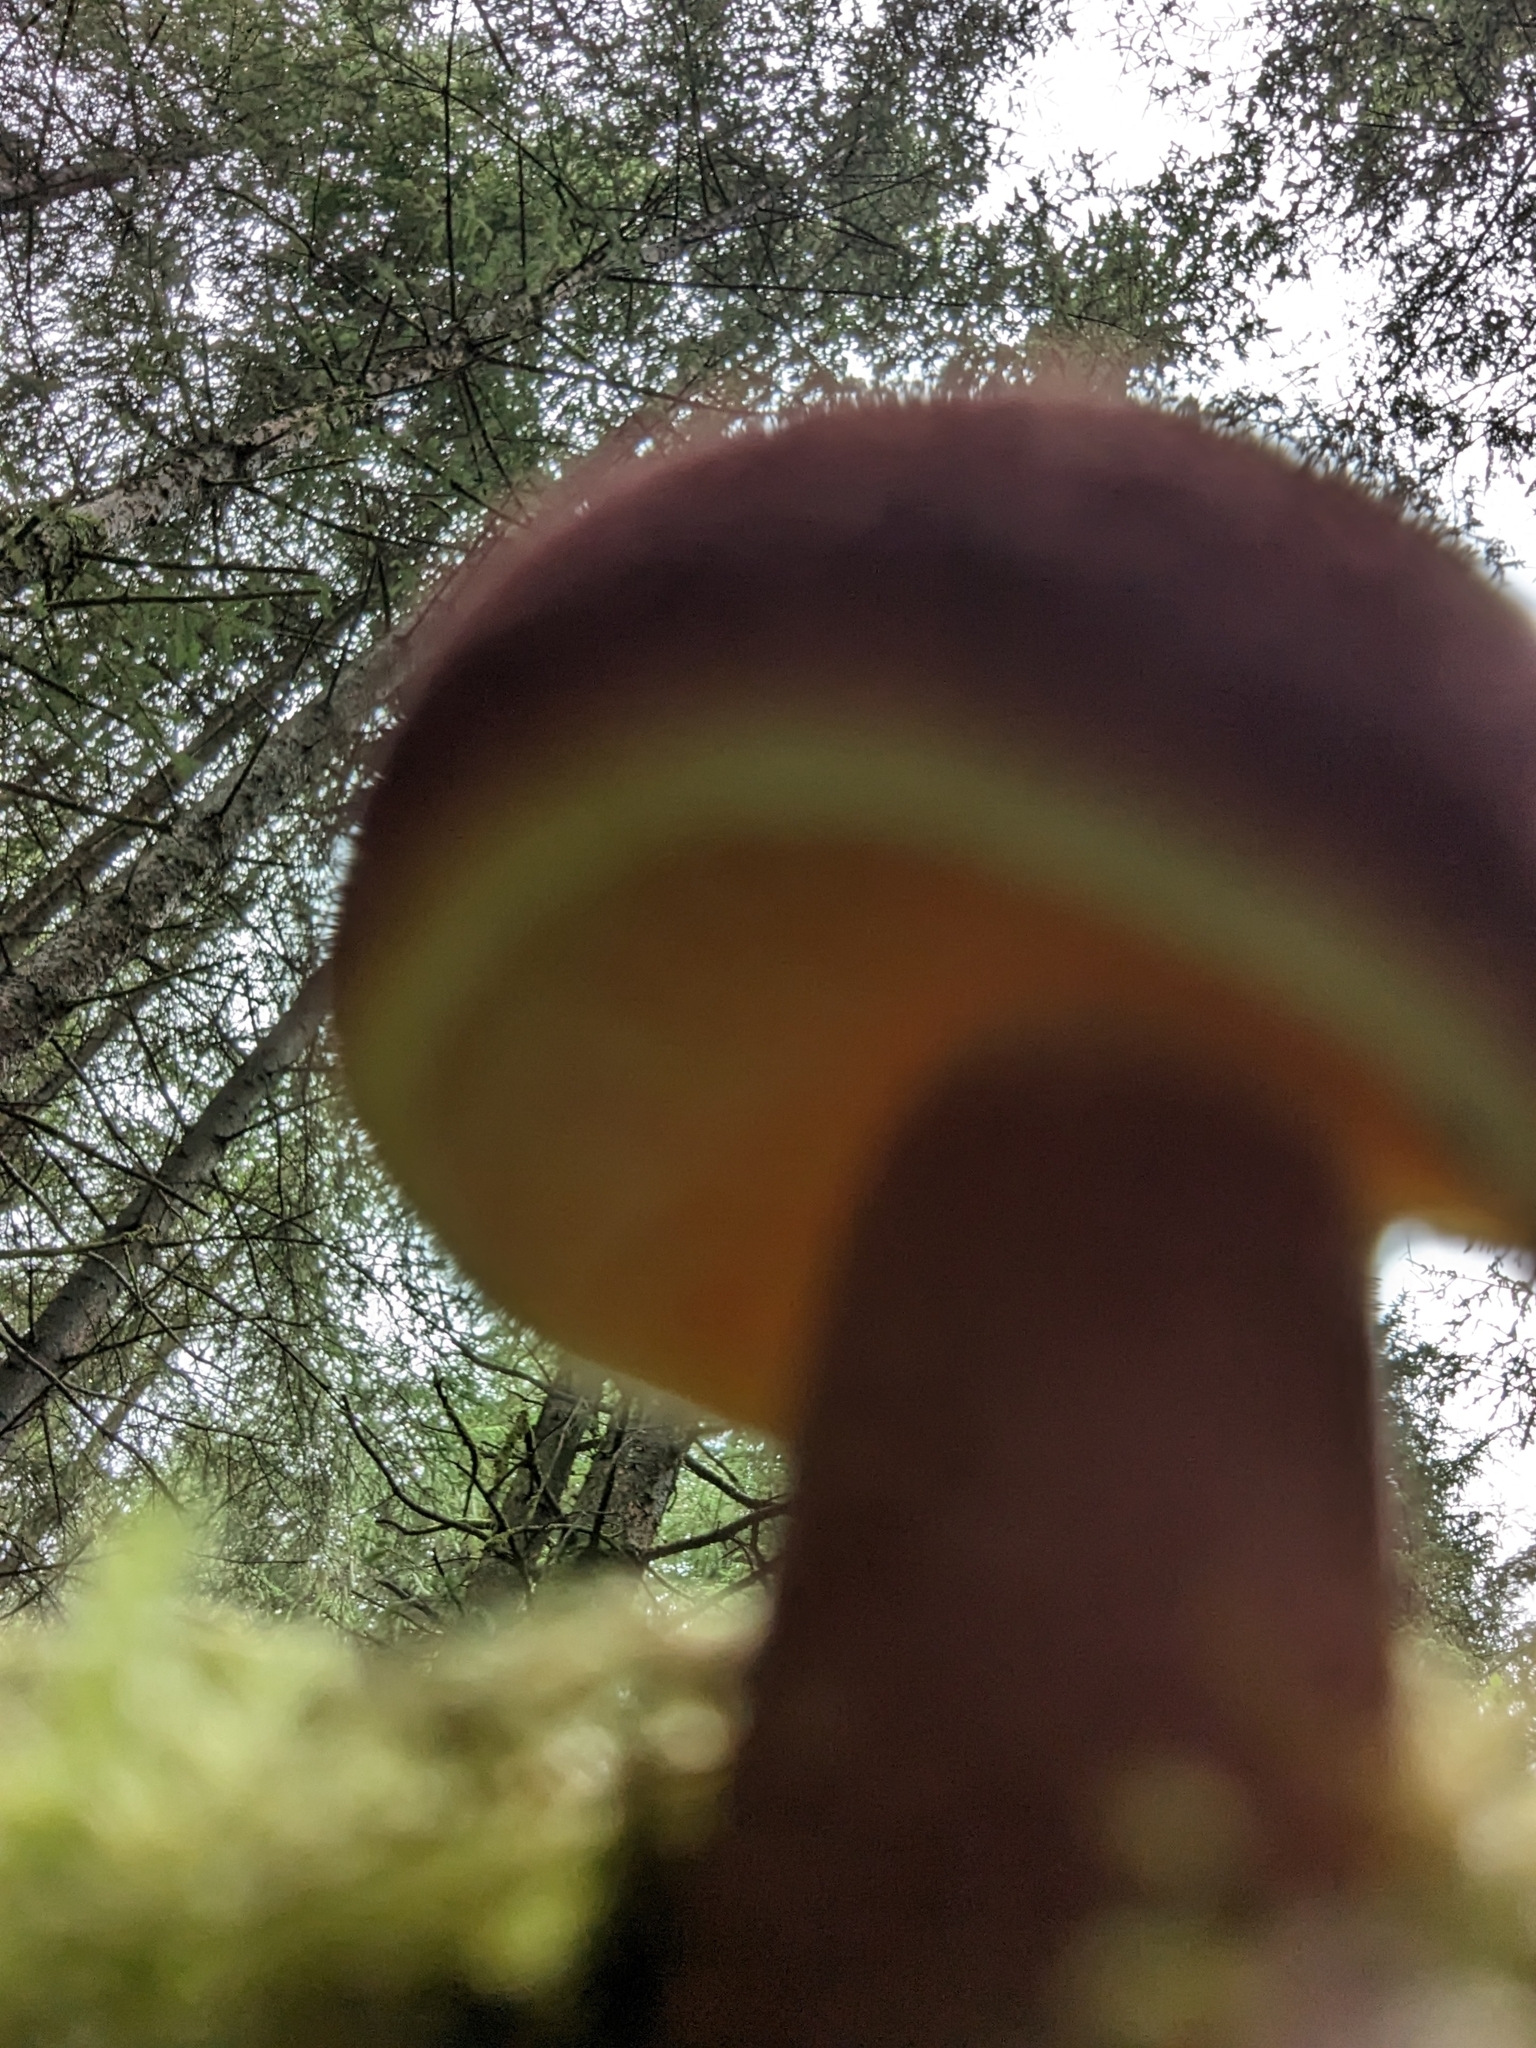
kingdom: Fungi
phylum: Basidiomycota
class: Agaricomycetes
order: Agaricales
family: Tricholomataceae
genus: Tricholomopsis
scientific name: Tricholomopsis rutilans
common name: Plums and custard
